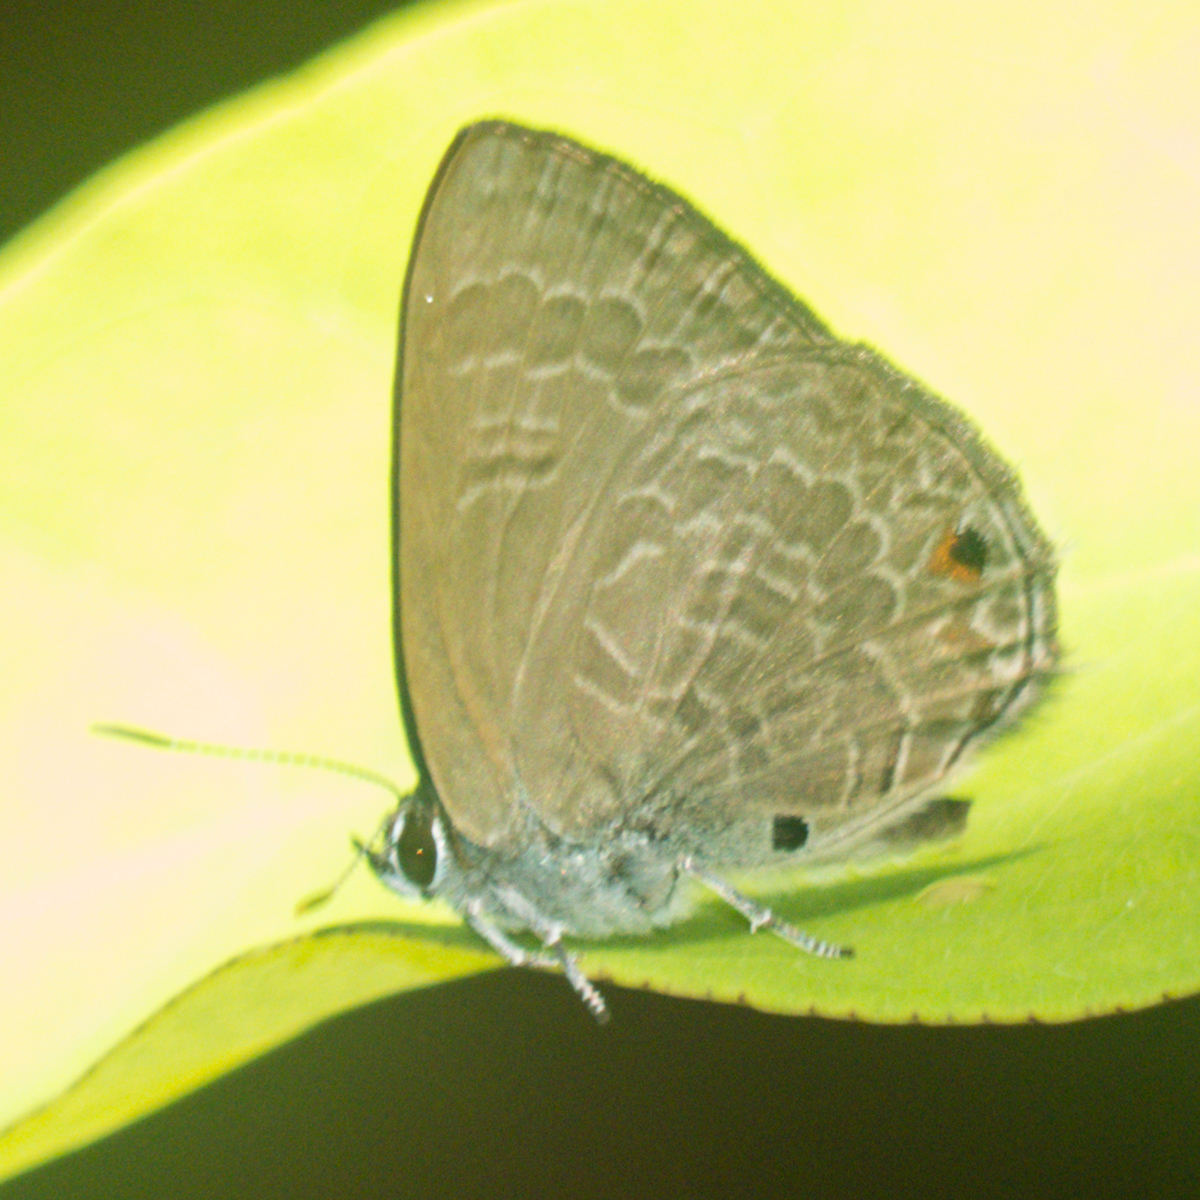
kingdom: Animalia
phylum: Arthropoda
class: Insecta
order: Lepidoptera
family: Lycaenidae
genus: Anthene
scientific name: Anthene emolus
